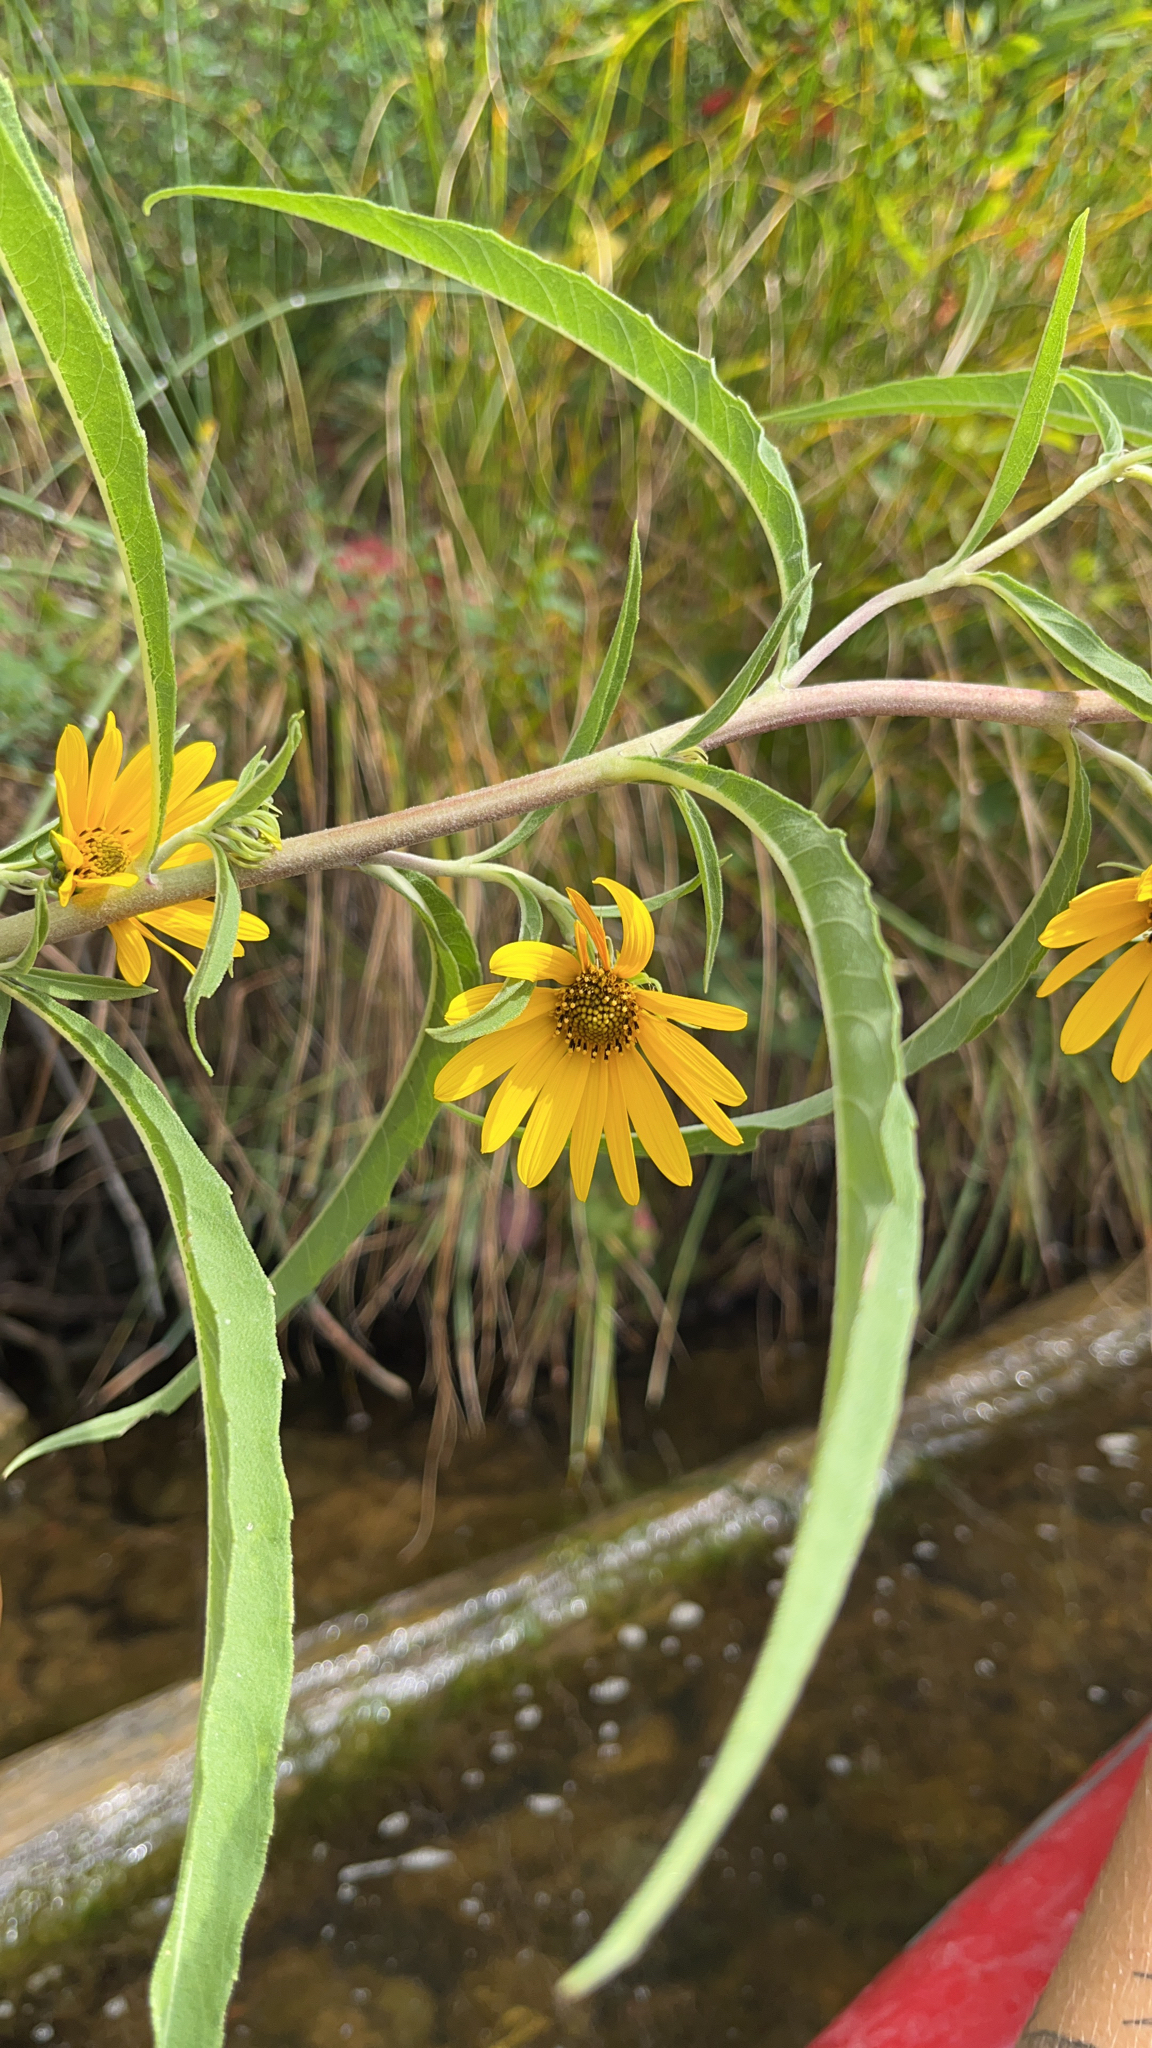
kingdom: Plantae
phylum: Tracheophyta
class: Magnoliopsida
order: Asterales
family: Asteraceae
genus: Helianthus
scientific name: Helianthus maximiliani
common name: Maximilian's sunflower
